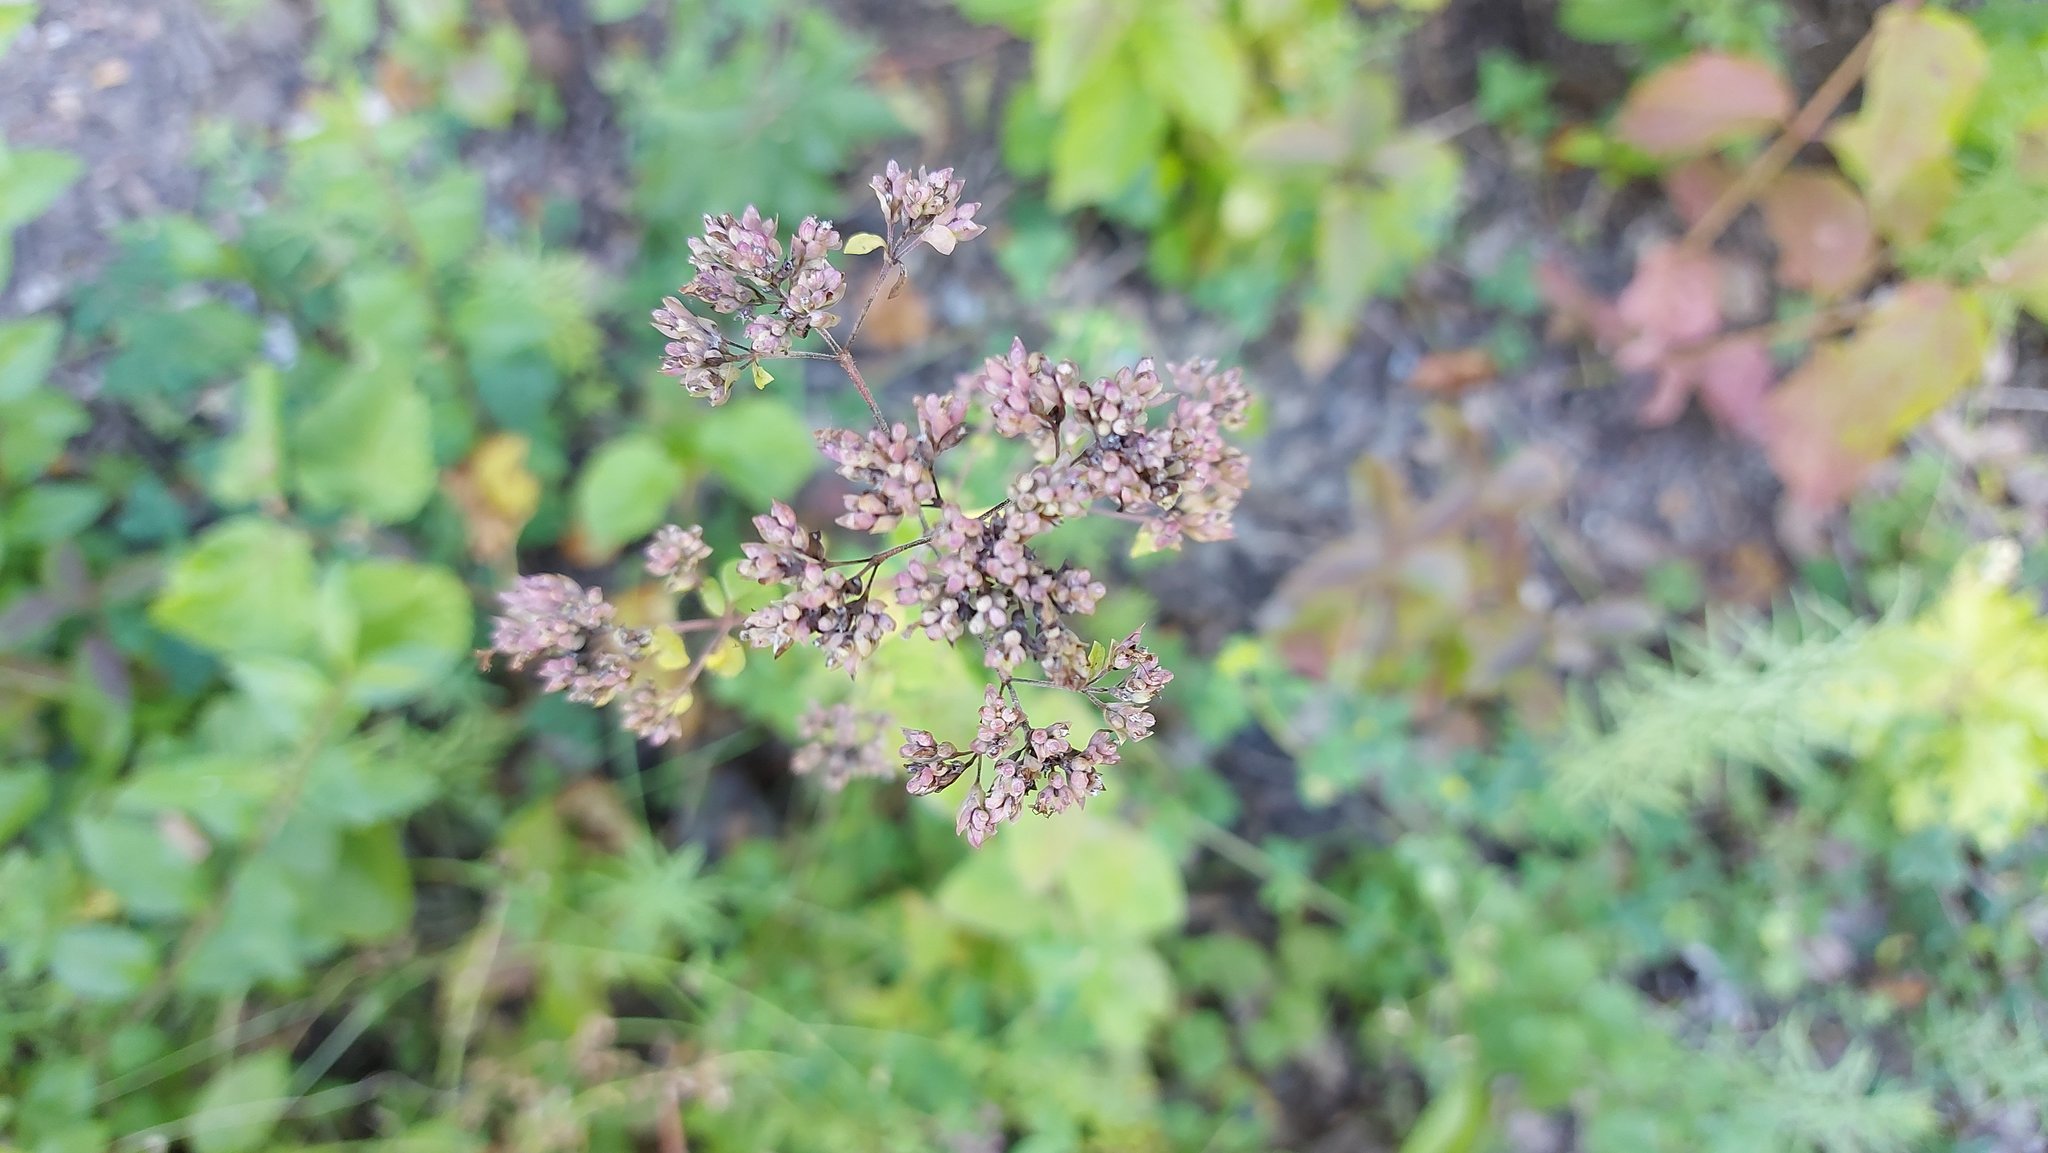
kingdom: Plantae
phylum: Tracheophyta
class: Magnoliopsida
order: Lamiales
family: Lamiaceae
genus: Origanum
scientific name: Origanum vulgare
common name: Wild marjoram
